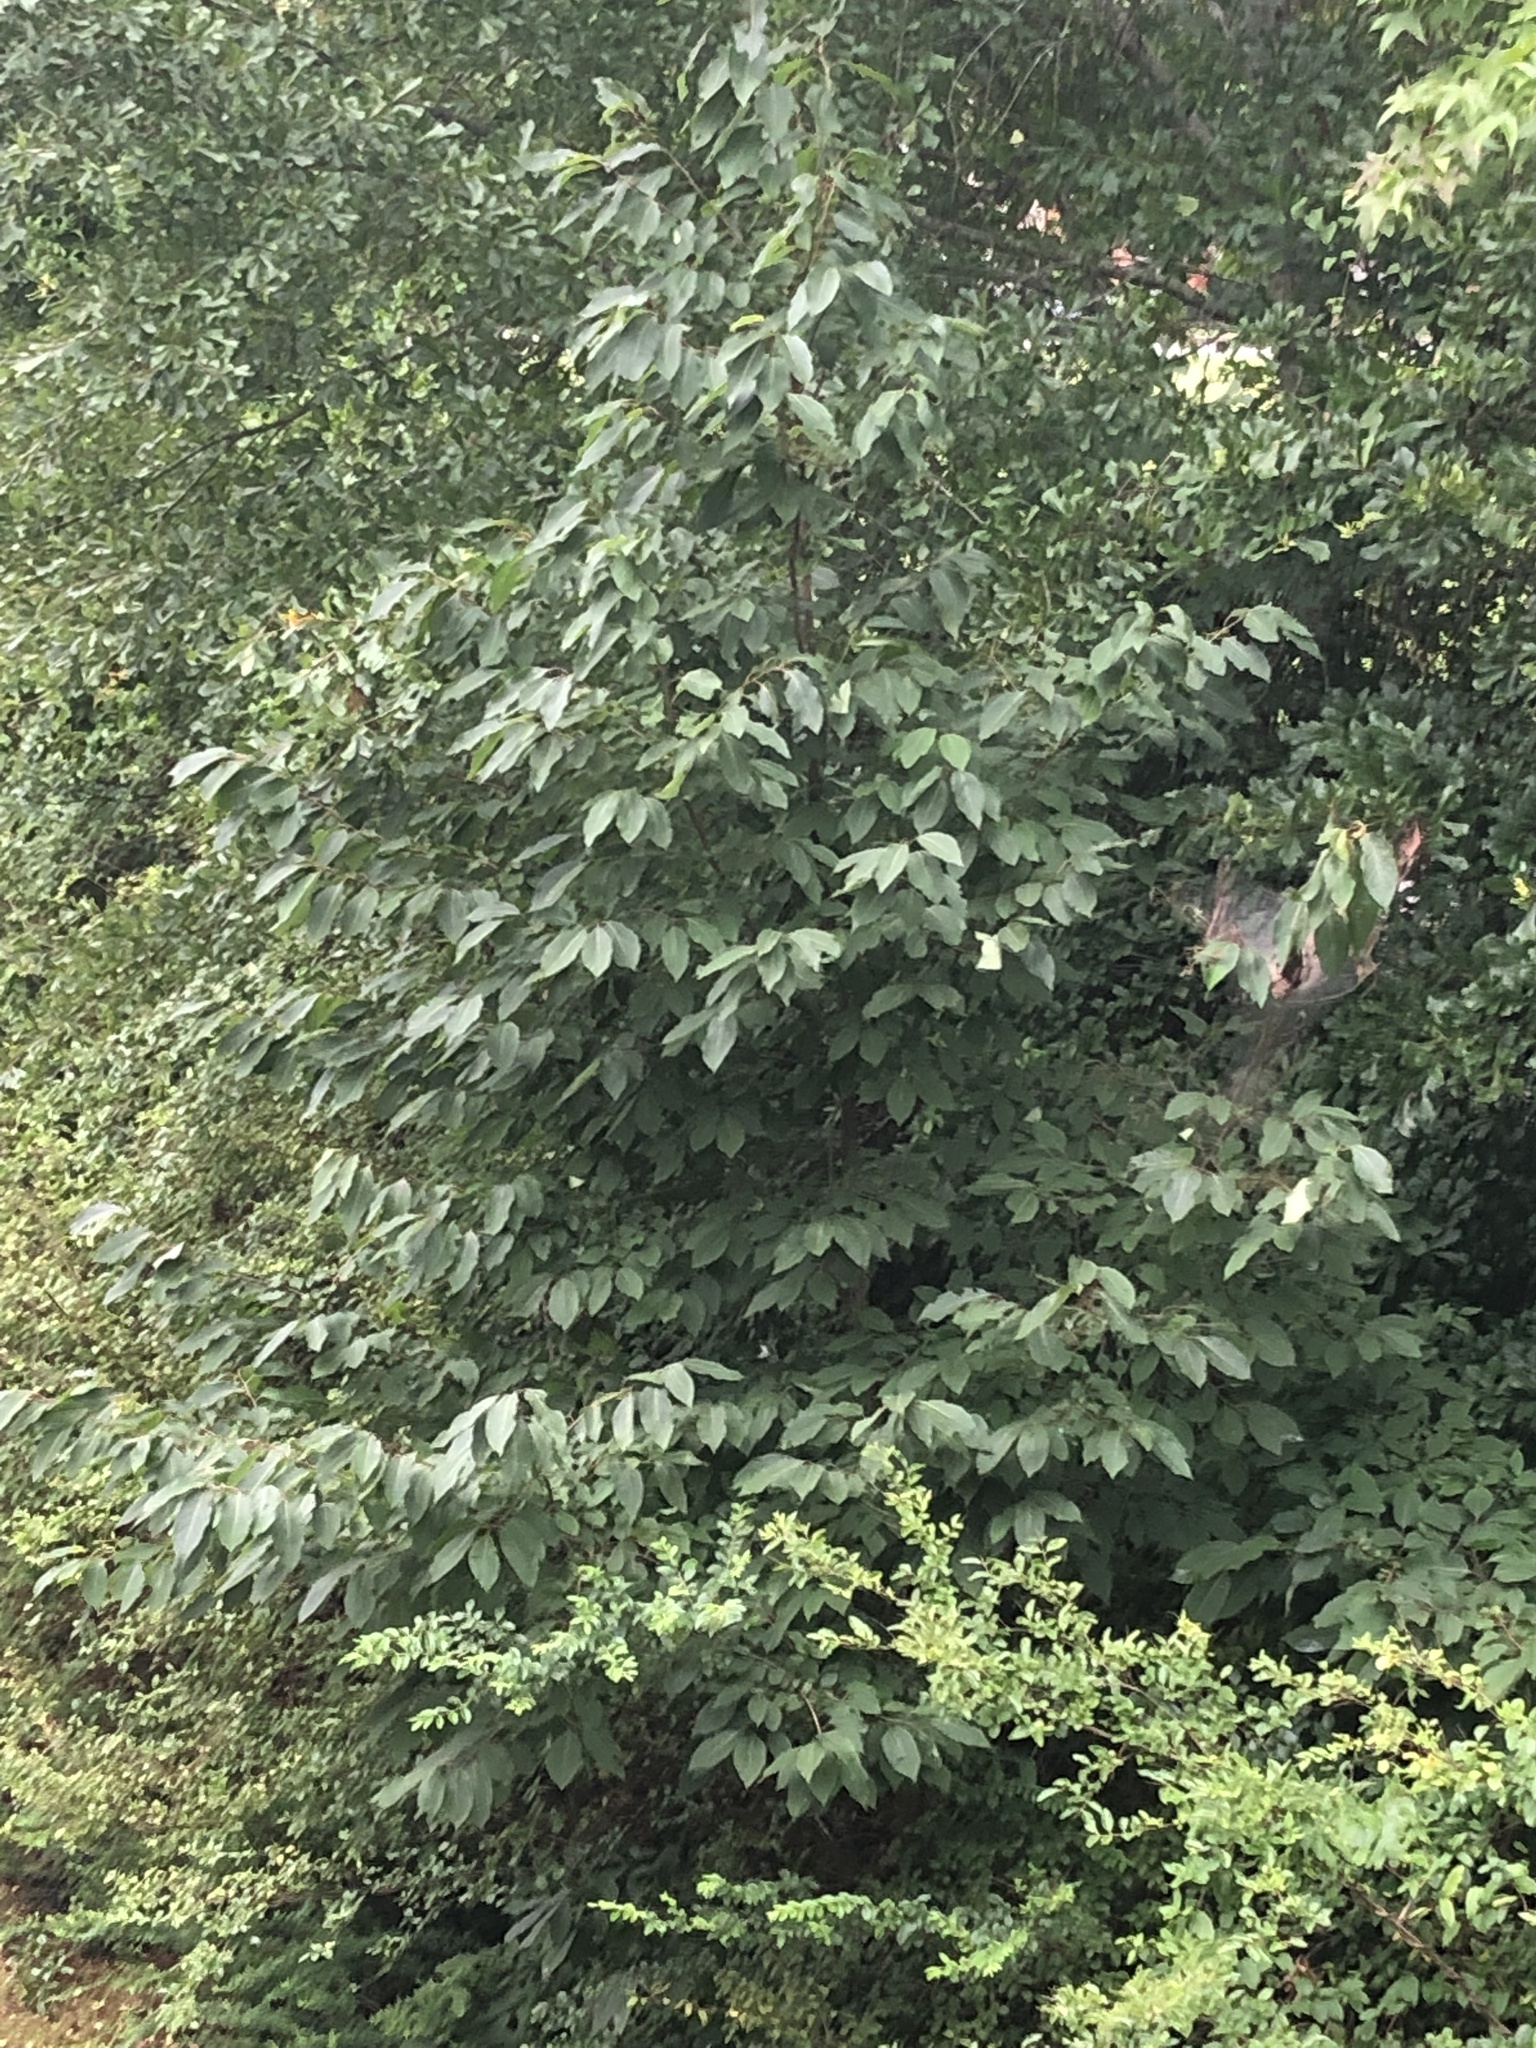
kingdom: Plantae
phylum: Tracheophyta
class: Magnoliopsida
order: Ericales
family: Ebenaceae
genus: Diospyros
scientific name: Diospyros virginiana
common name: Persimmon
